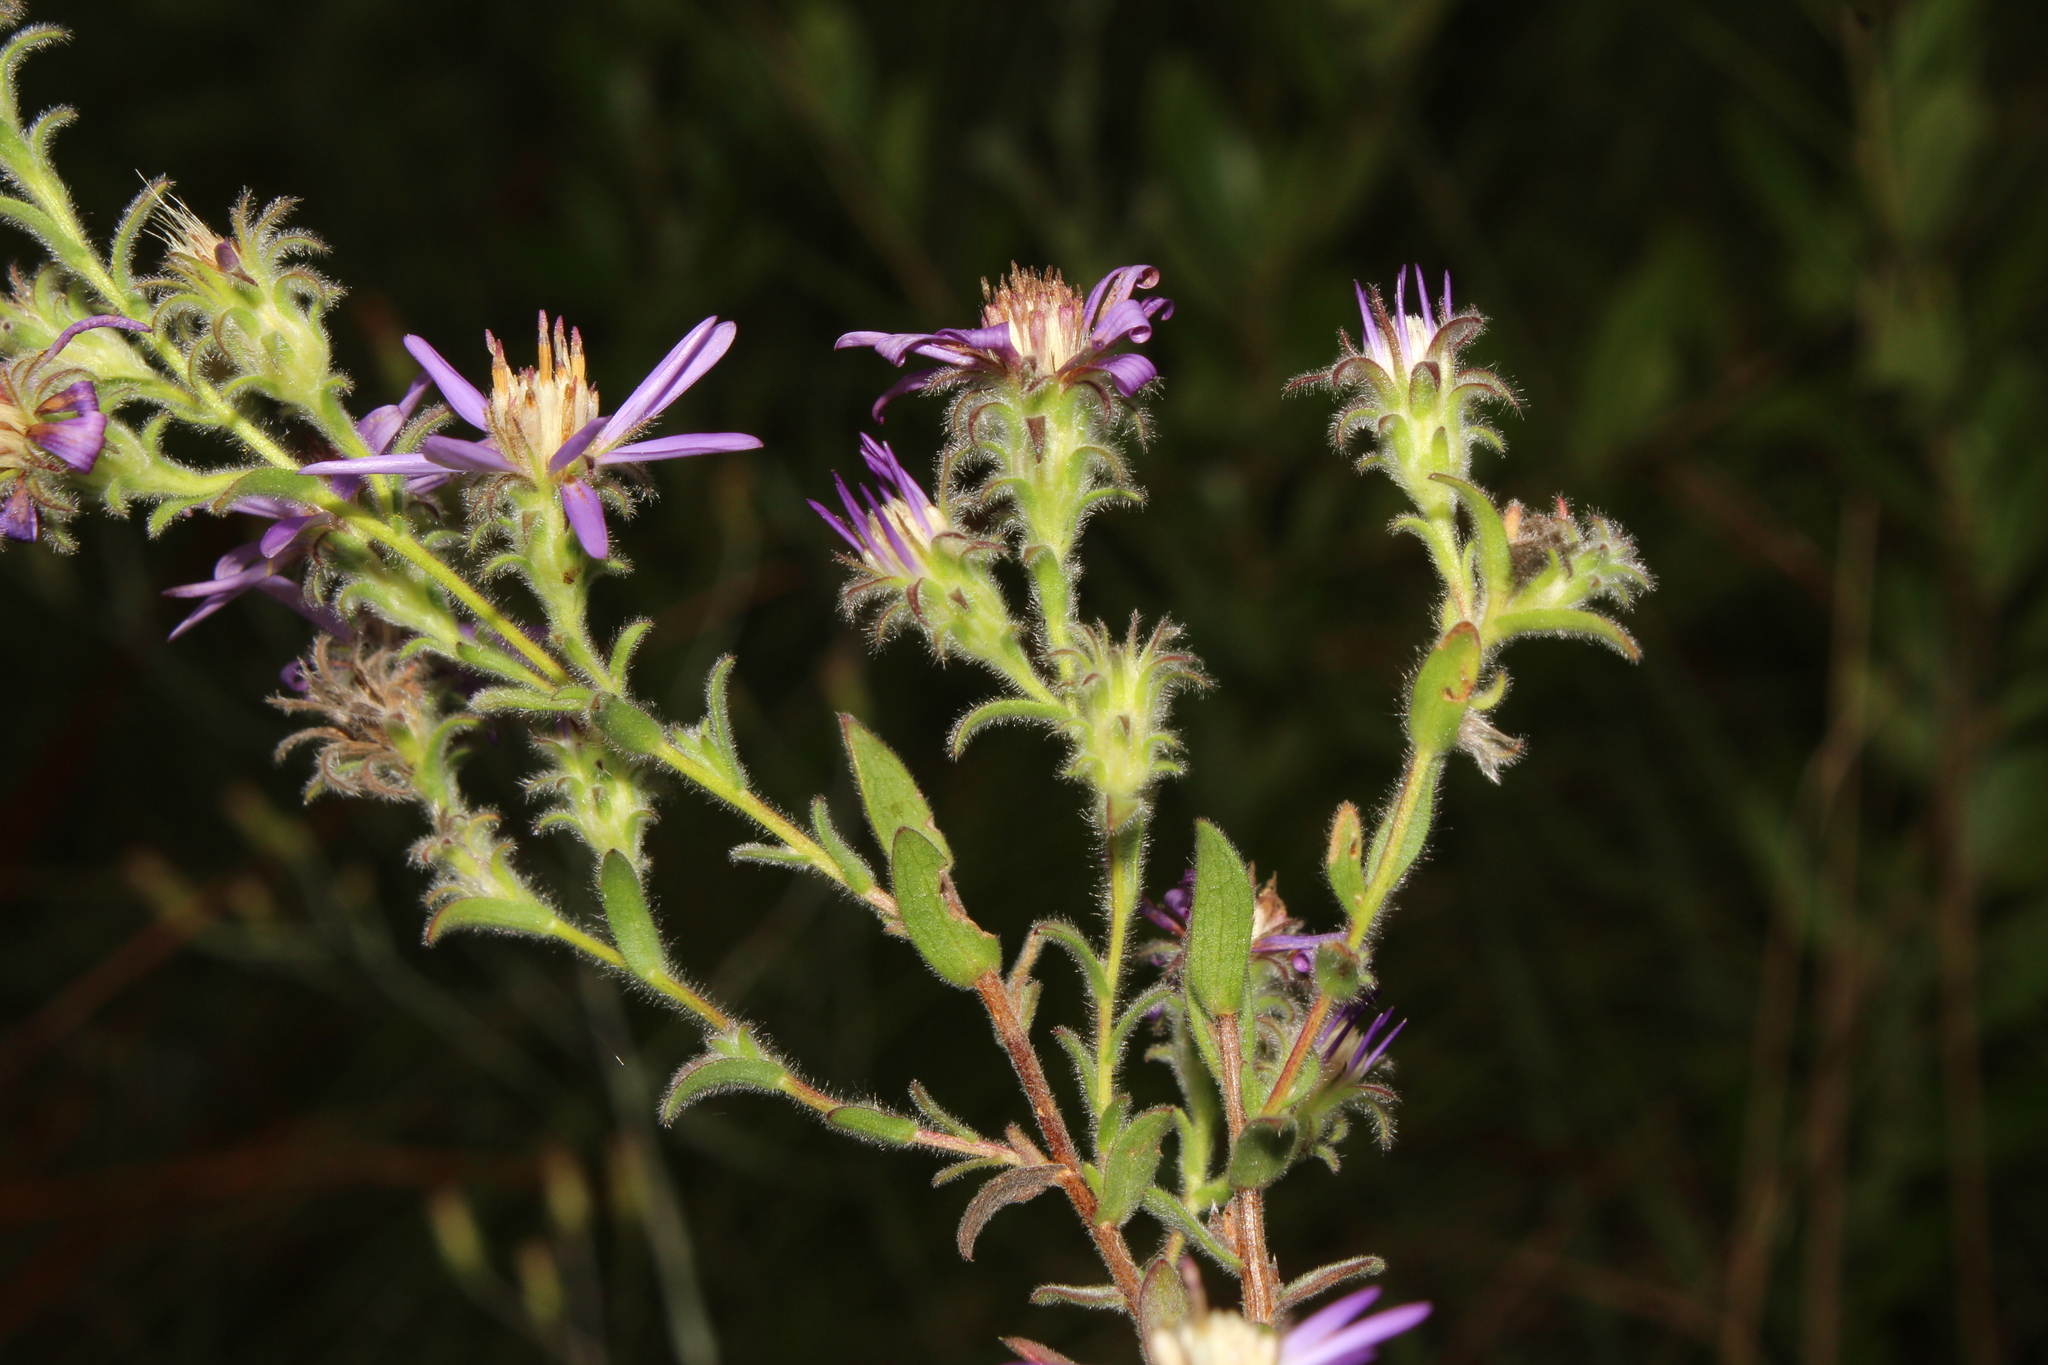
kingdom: Plantae
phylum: Tracheophyta
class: Magnoliopsida
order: Asterales
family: Asteraceae
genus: Symphyotrichum
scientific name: Symphyotrichum plumosum
